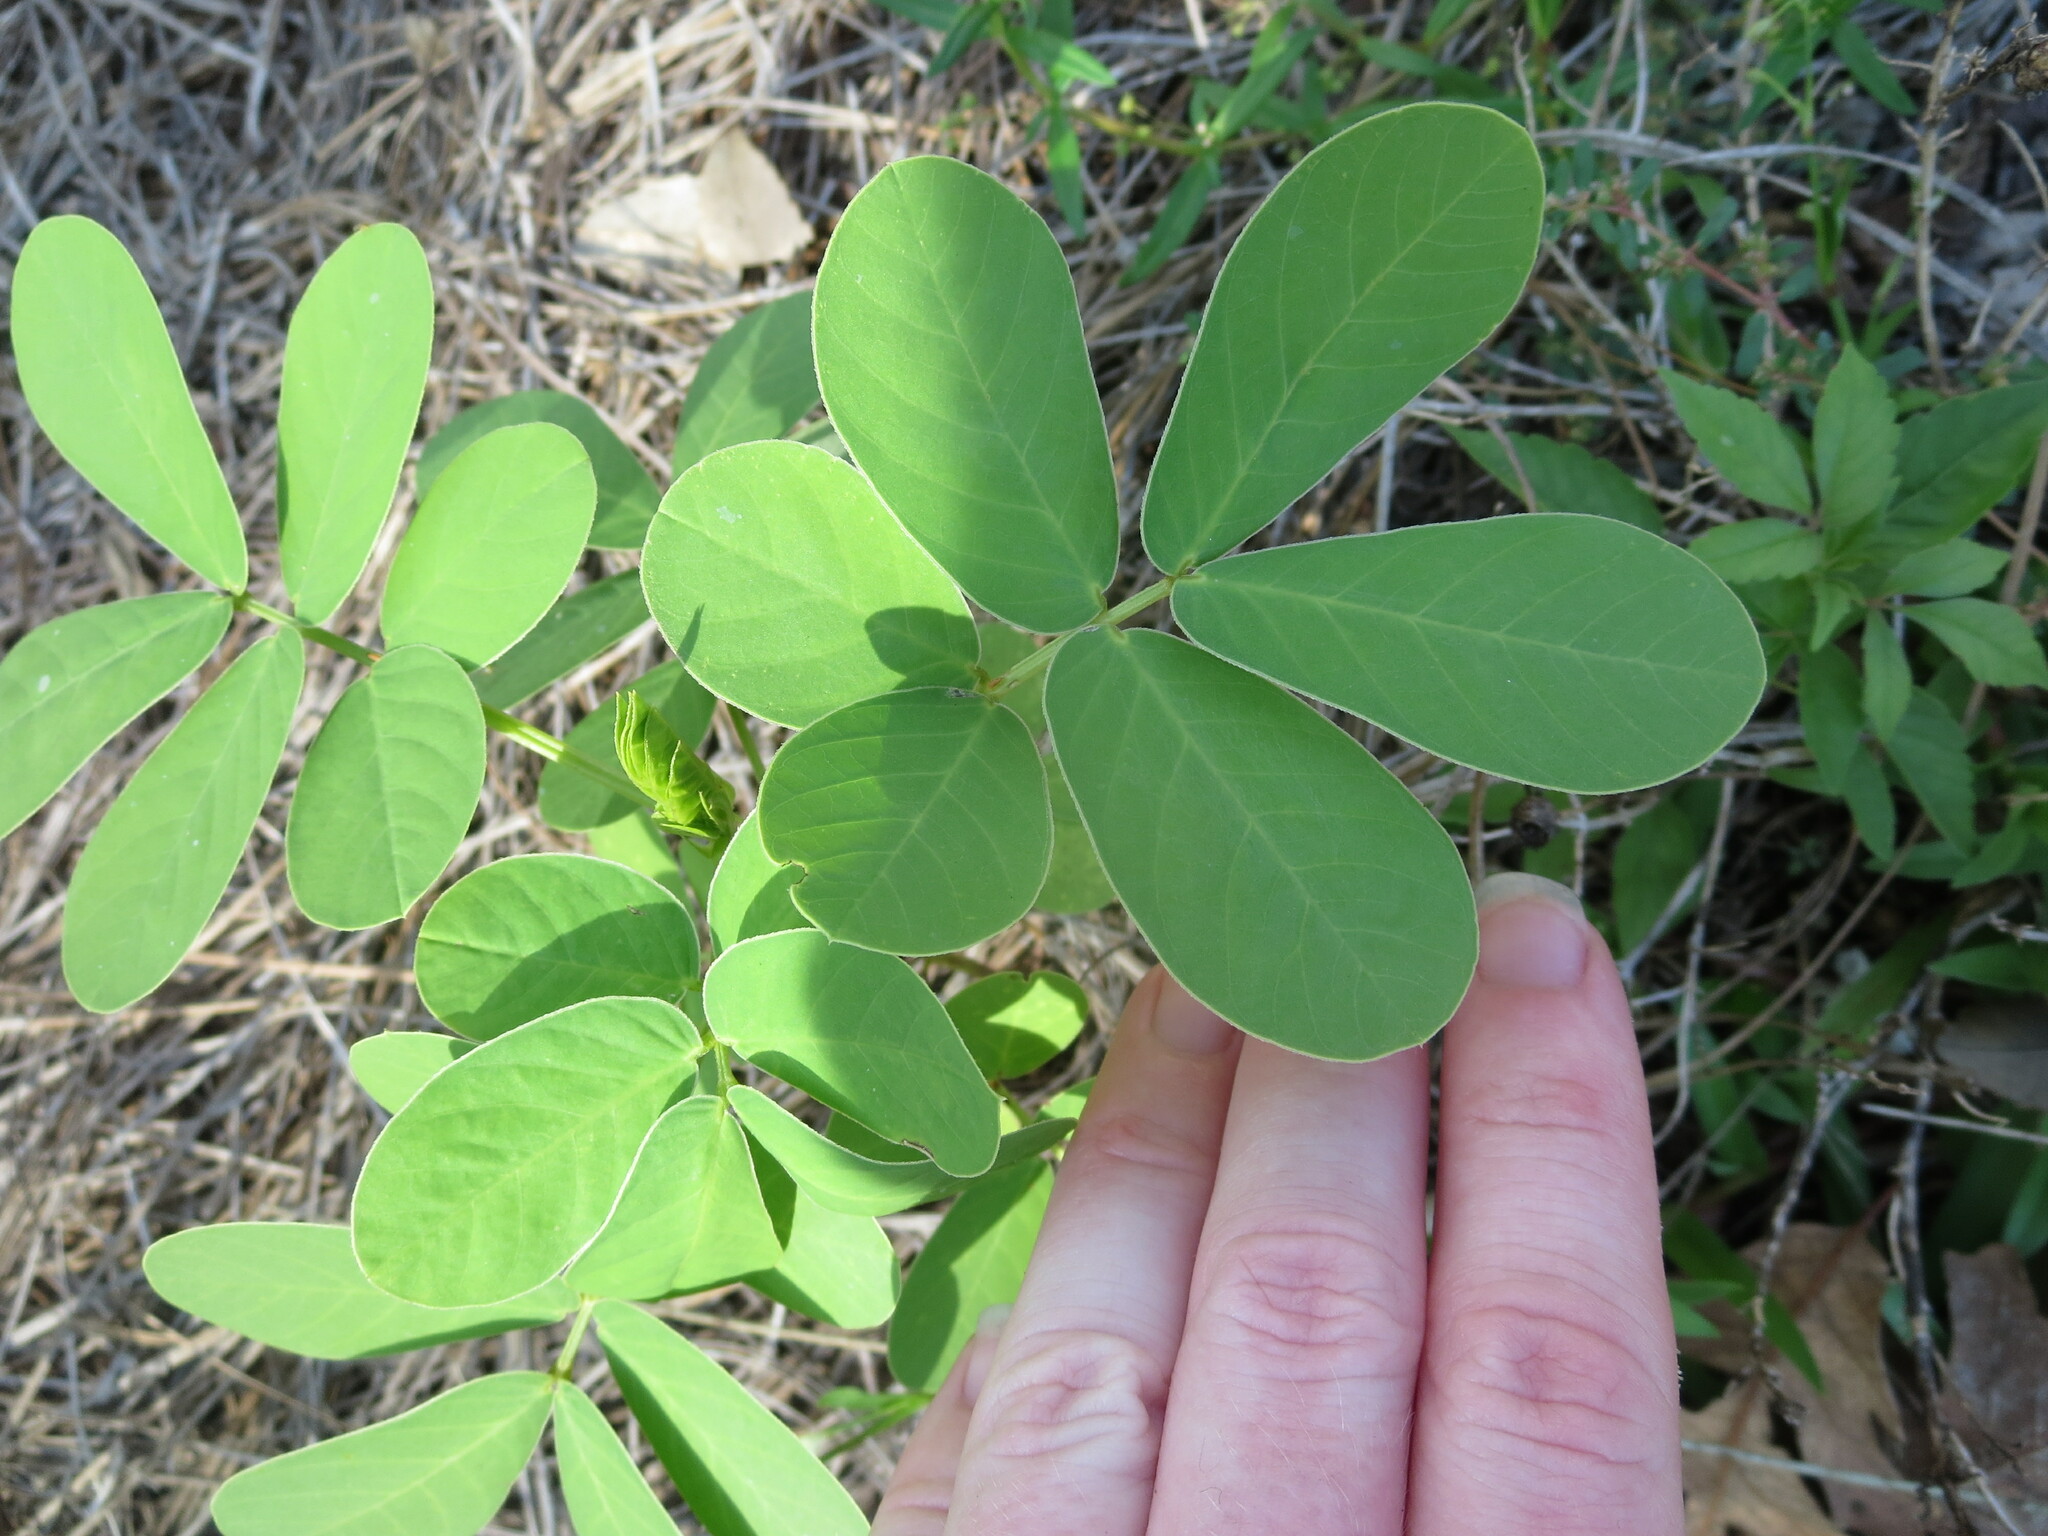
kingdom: Plantae
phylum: Tracheophyta
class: Magnoliopsida
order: Fabales
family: Fabaceae
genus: Senna
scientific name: Senna obtusifolia
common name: Java-bean
